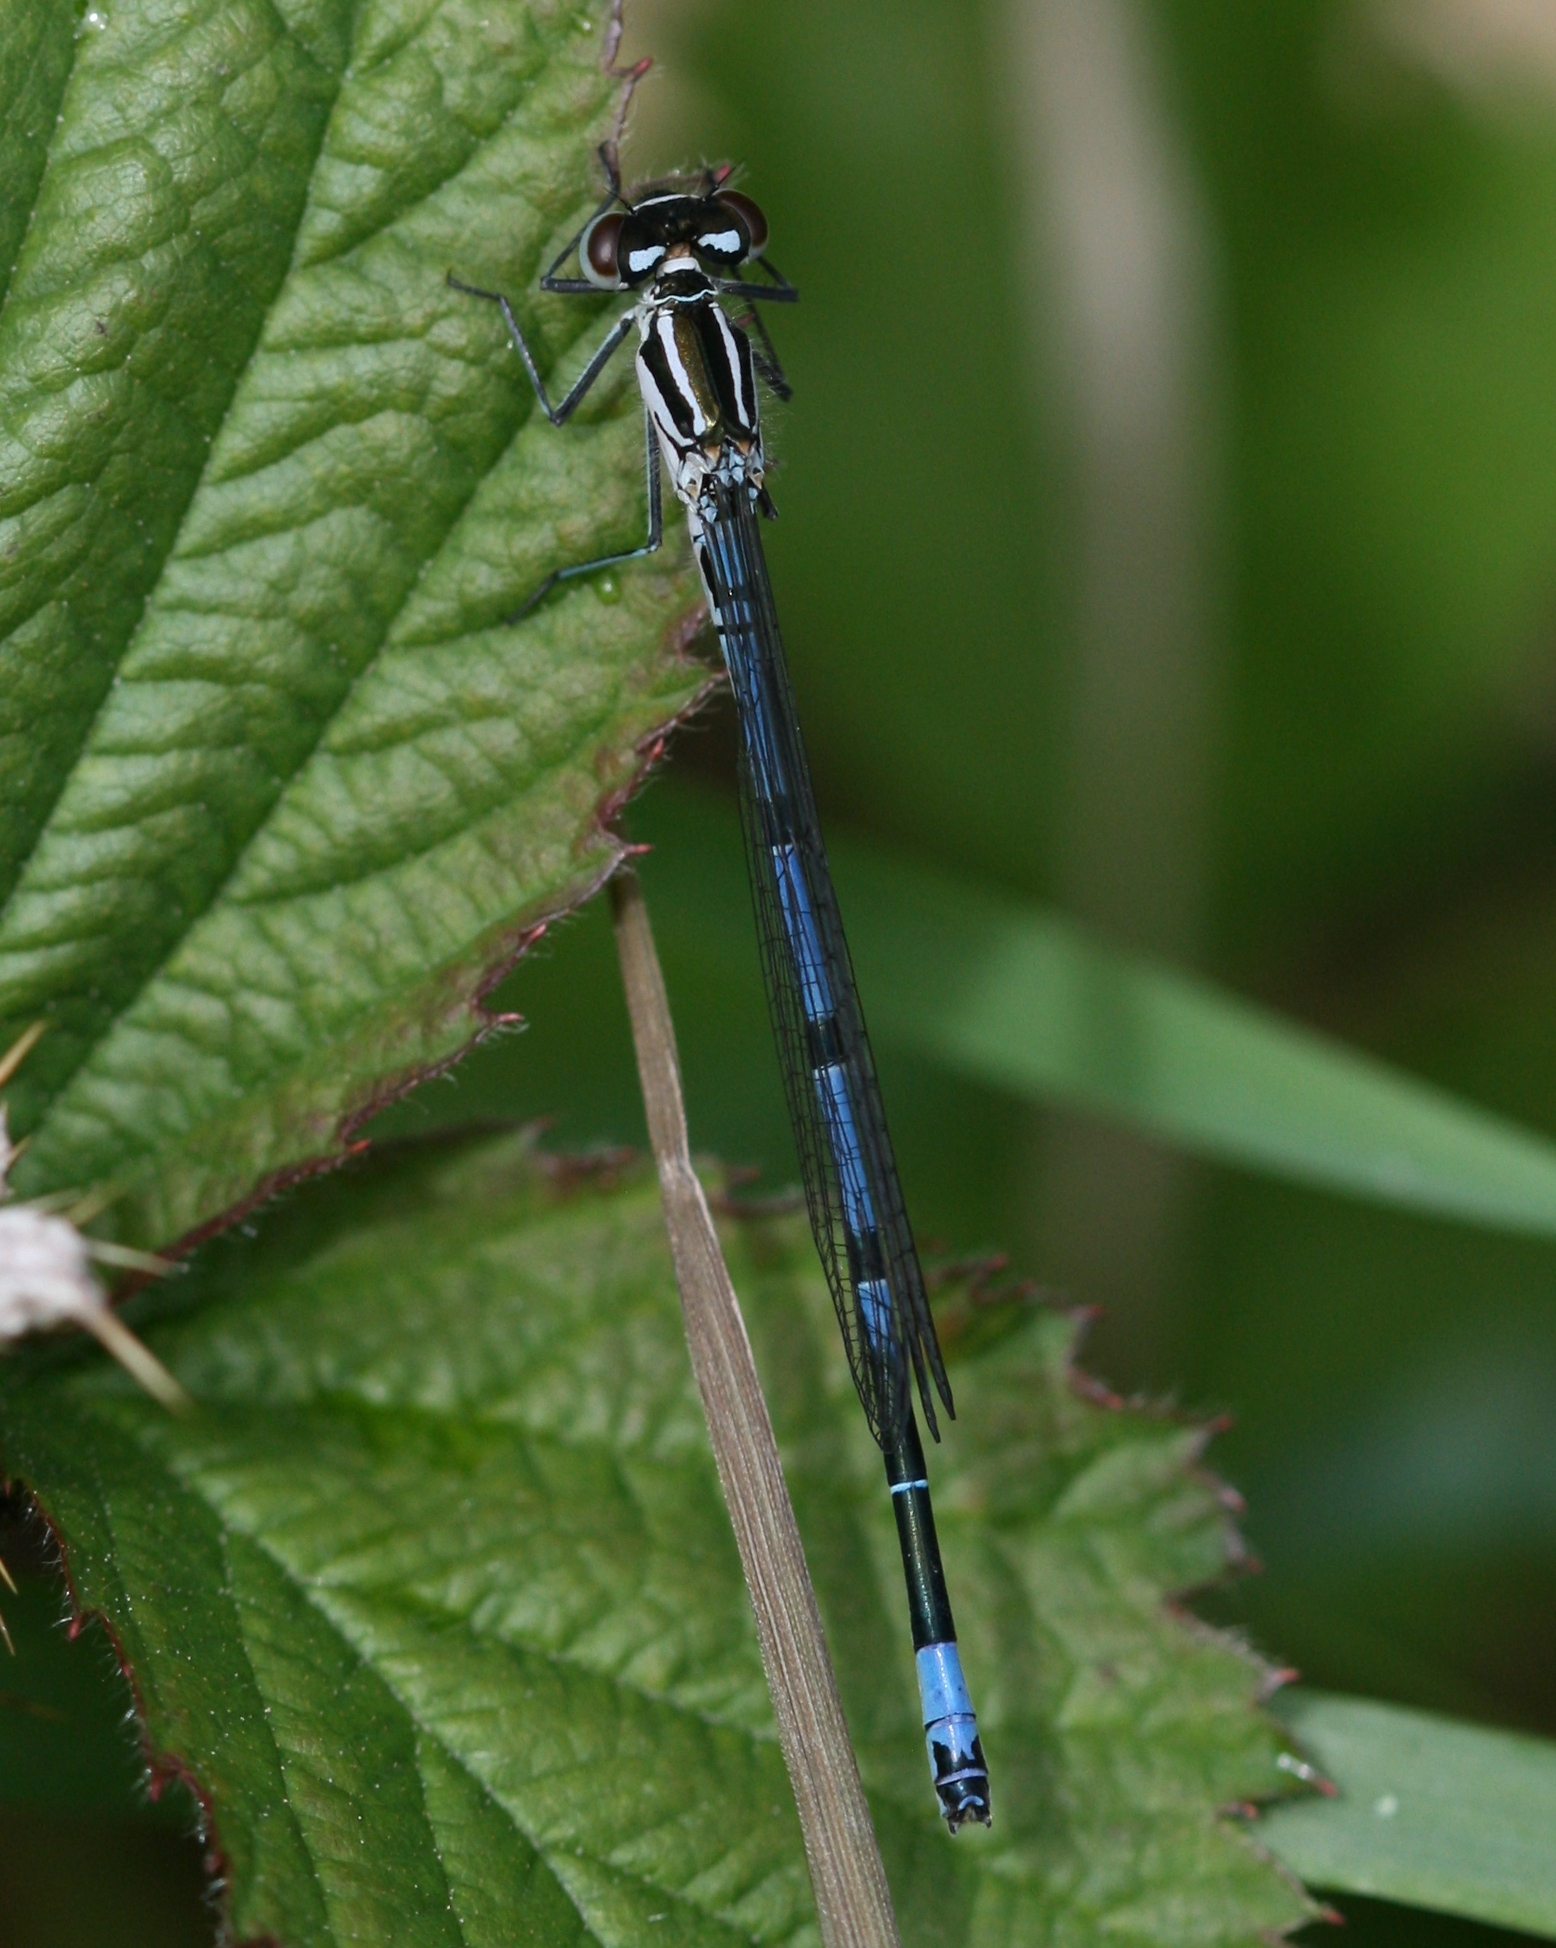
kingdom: Animalia
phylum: Arthropoda
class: Insecta
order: Odonata
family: Coenagrionidae
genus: Coenagrion
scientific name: Coenagrion puella
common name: Azure damselfly
